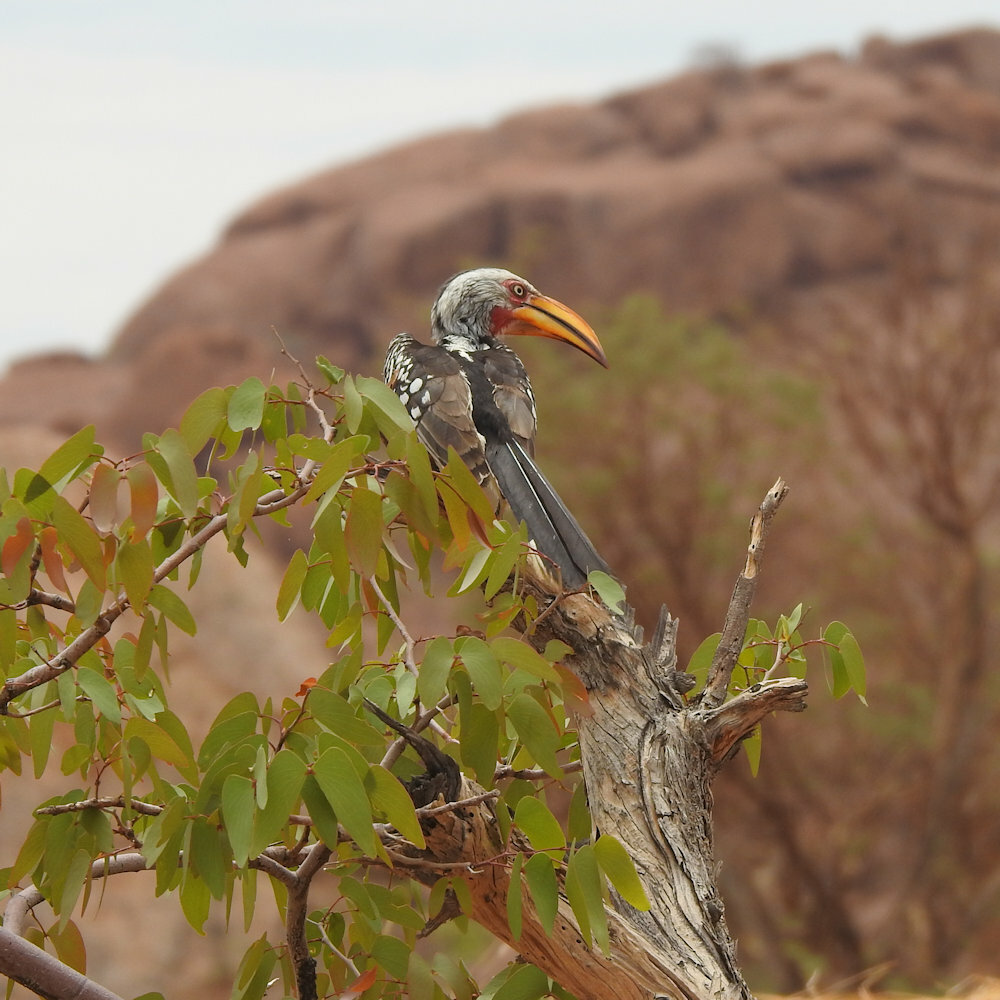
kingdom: Animalia
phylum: Chordata
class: Aves
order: Bucerotiformes
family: Bucerotidae
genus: Tockus
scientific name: Tockus leucomelas
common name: Southern yellow-billed hornbill
